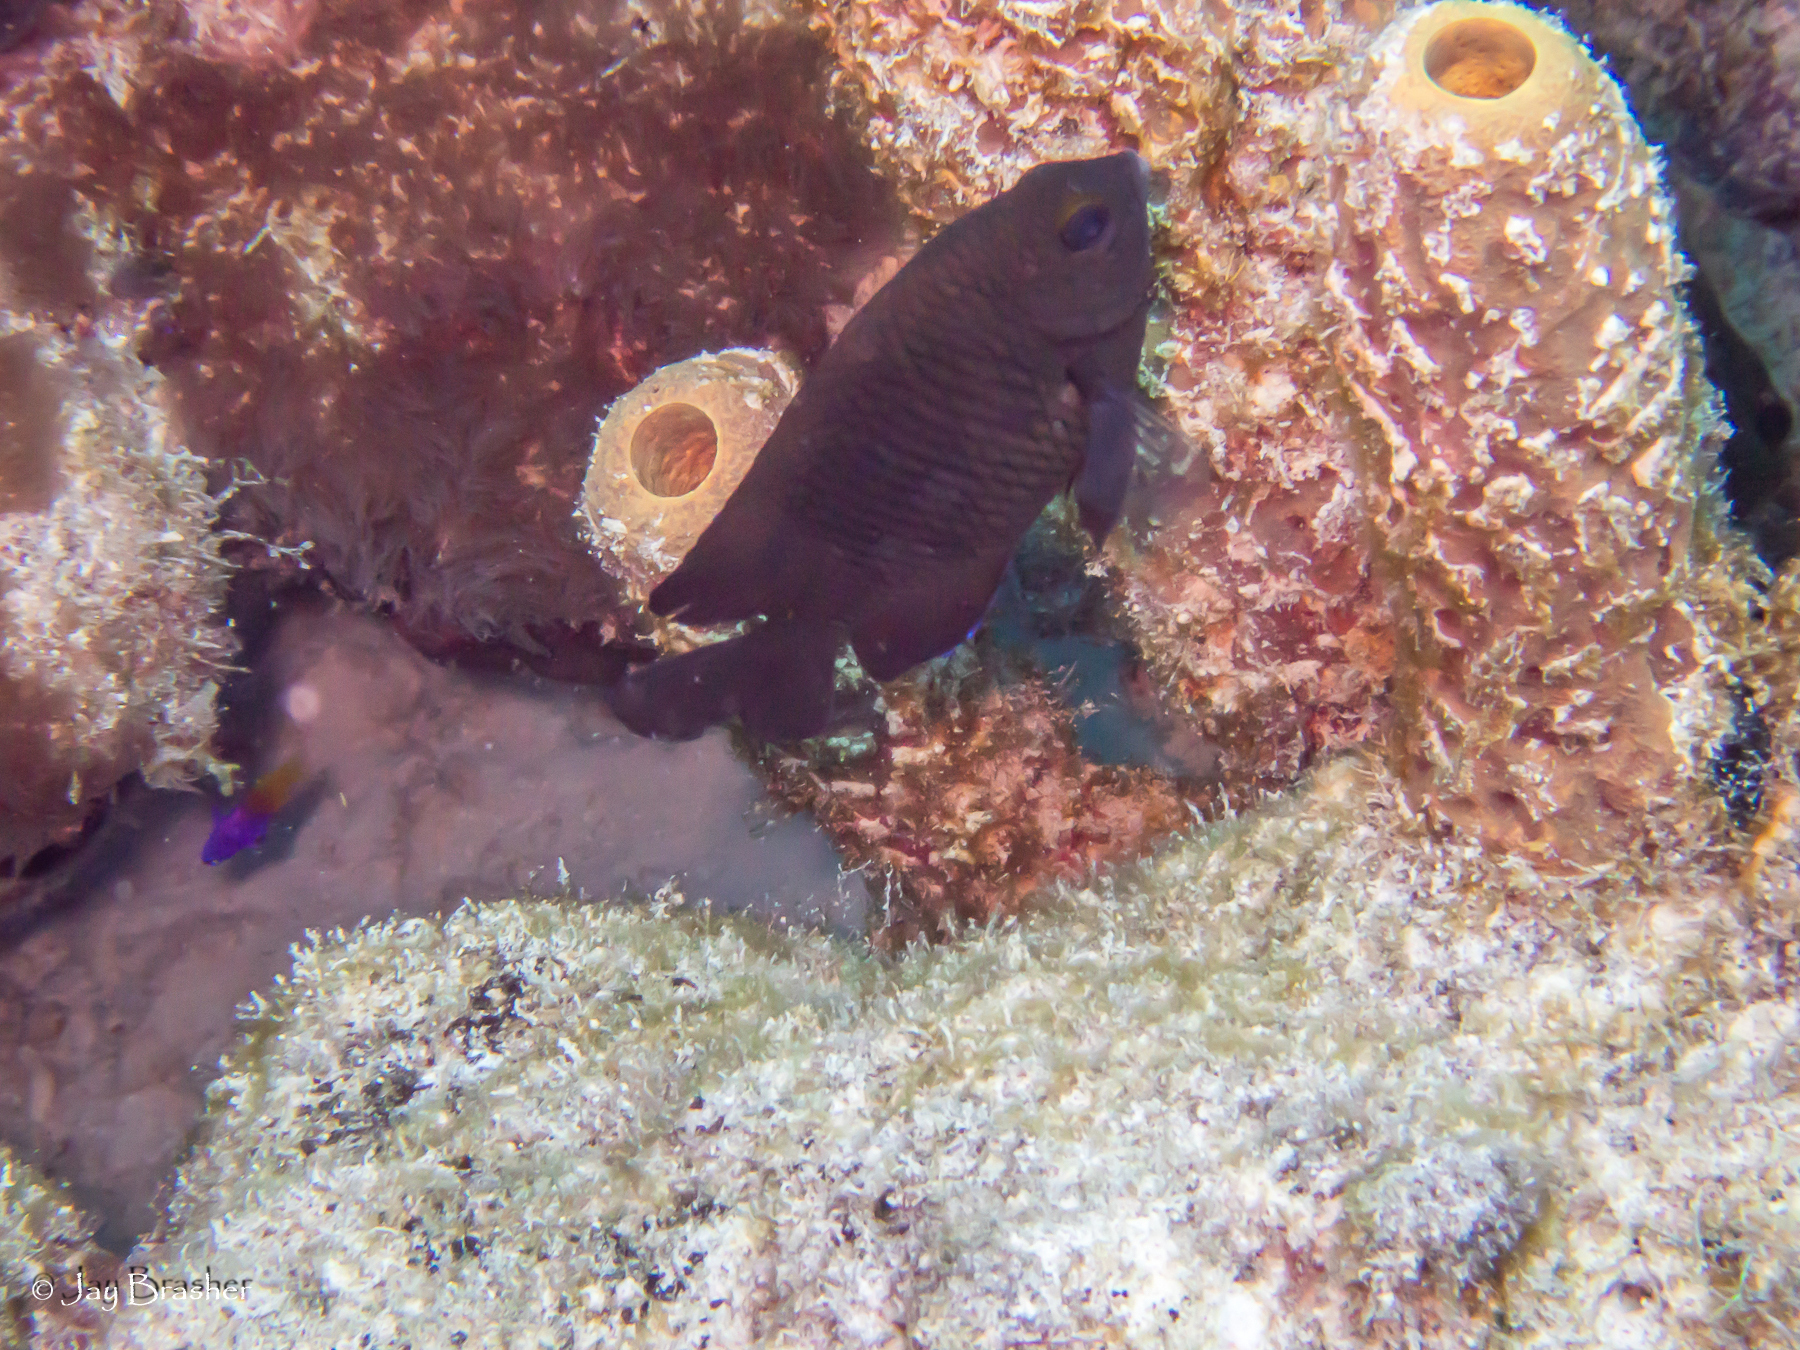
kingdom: Animalia
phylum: Porifera
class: Demospongiae
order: Verongiida
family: Aplysinidae
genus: Aplysina
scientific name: Aplysina archeri
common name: Stove-pipe sponge
